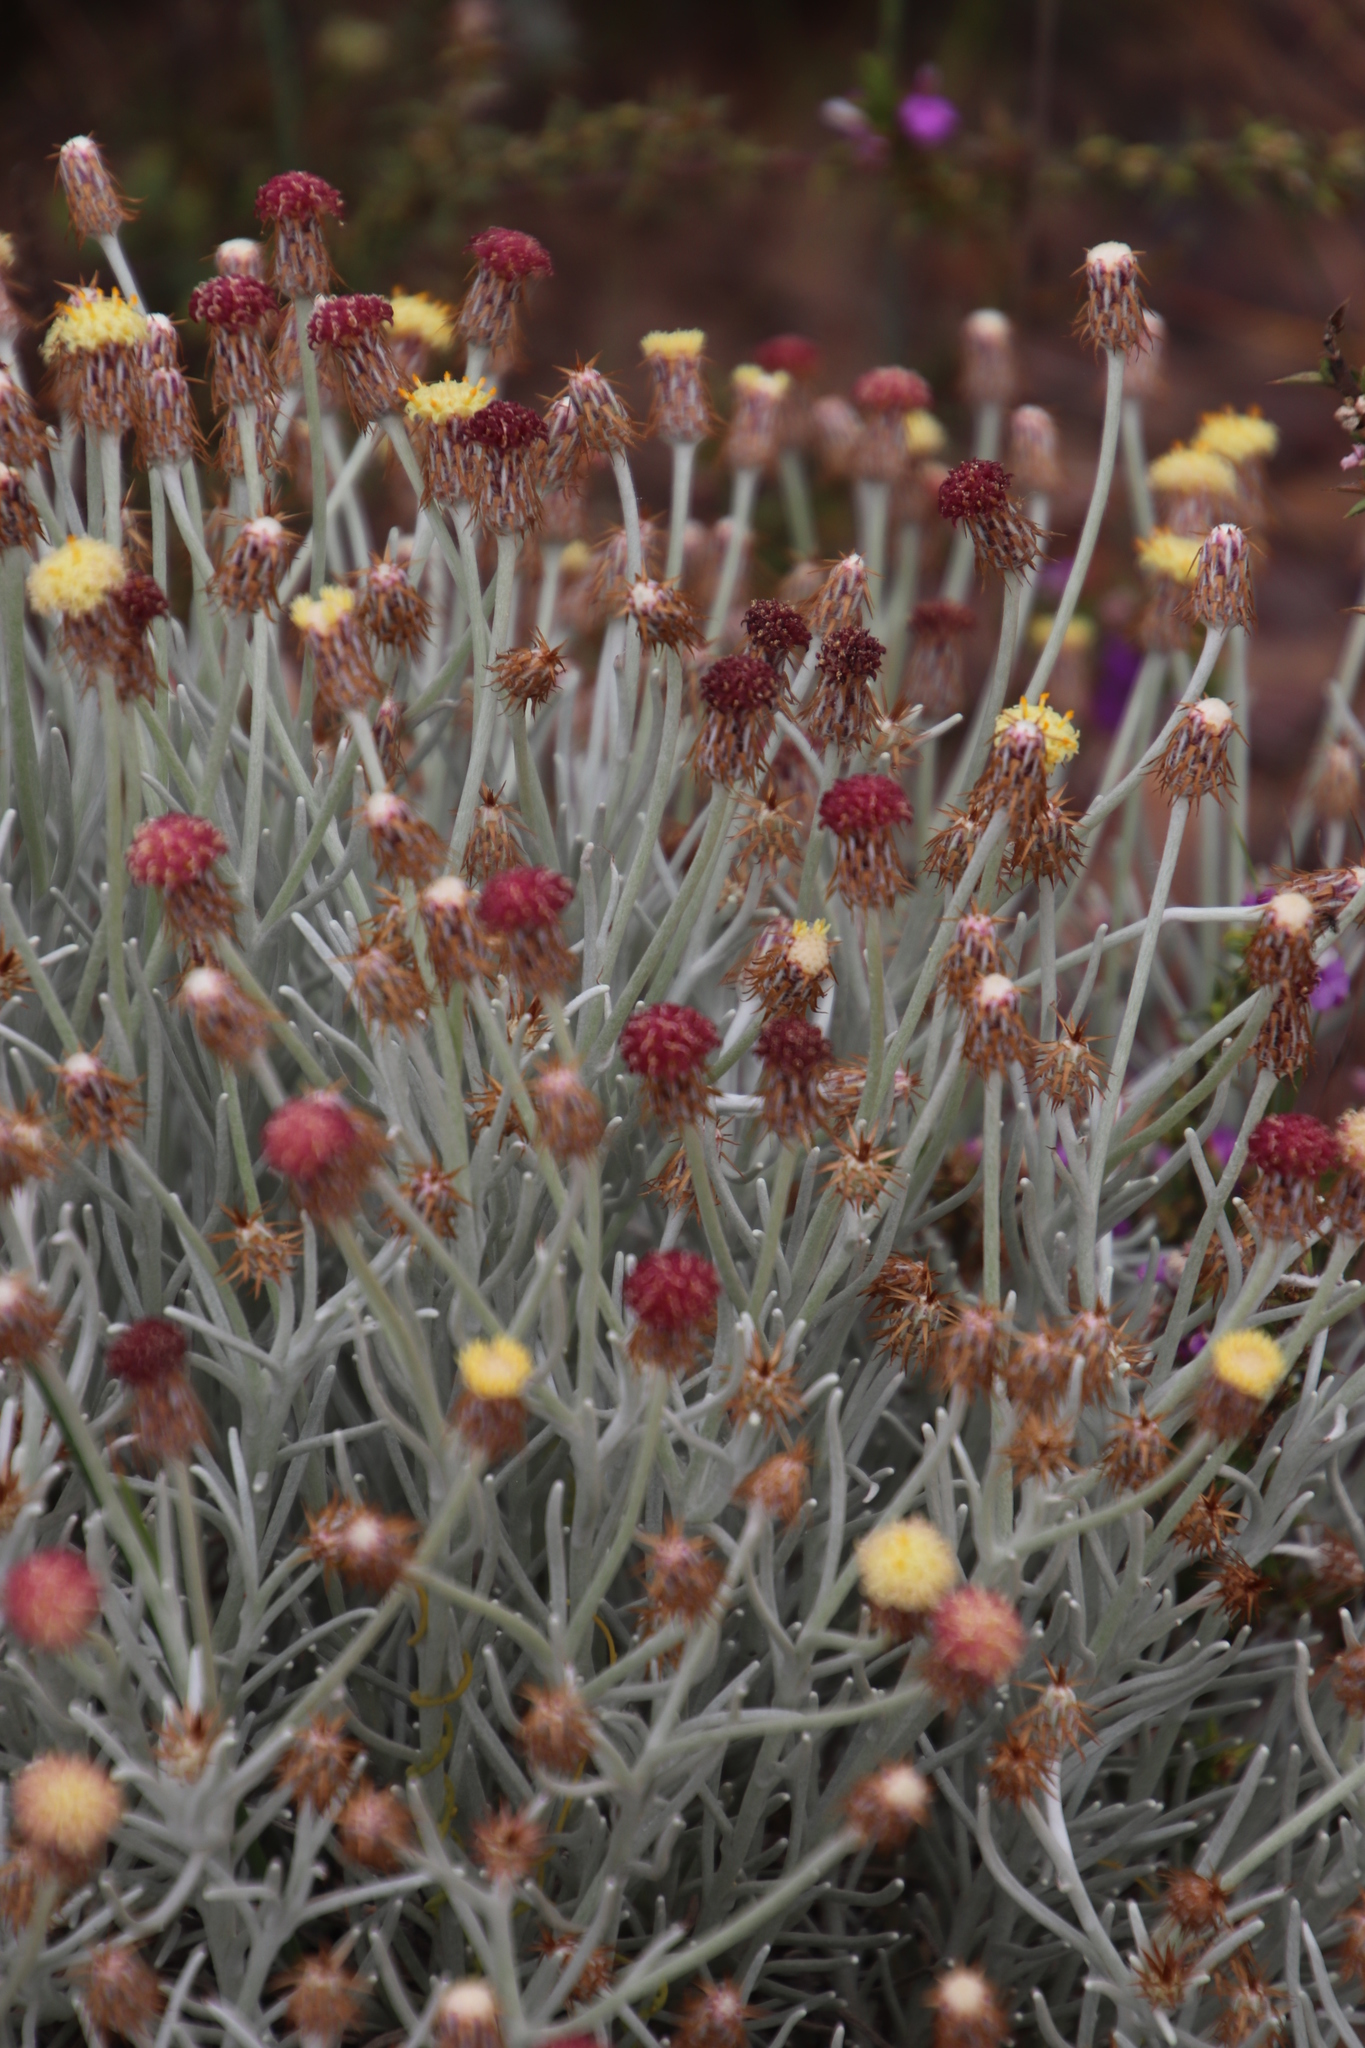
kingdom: Plantae
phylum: Tracheophyta
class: Magnoliopsida
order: Asterales
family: Asteraceae
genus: Syncarpha
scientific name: Syncarpha gnaphaloides
